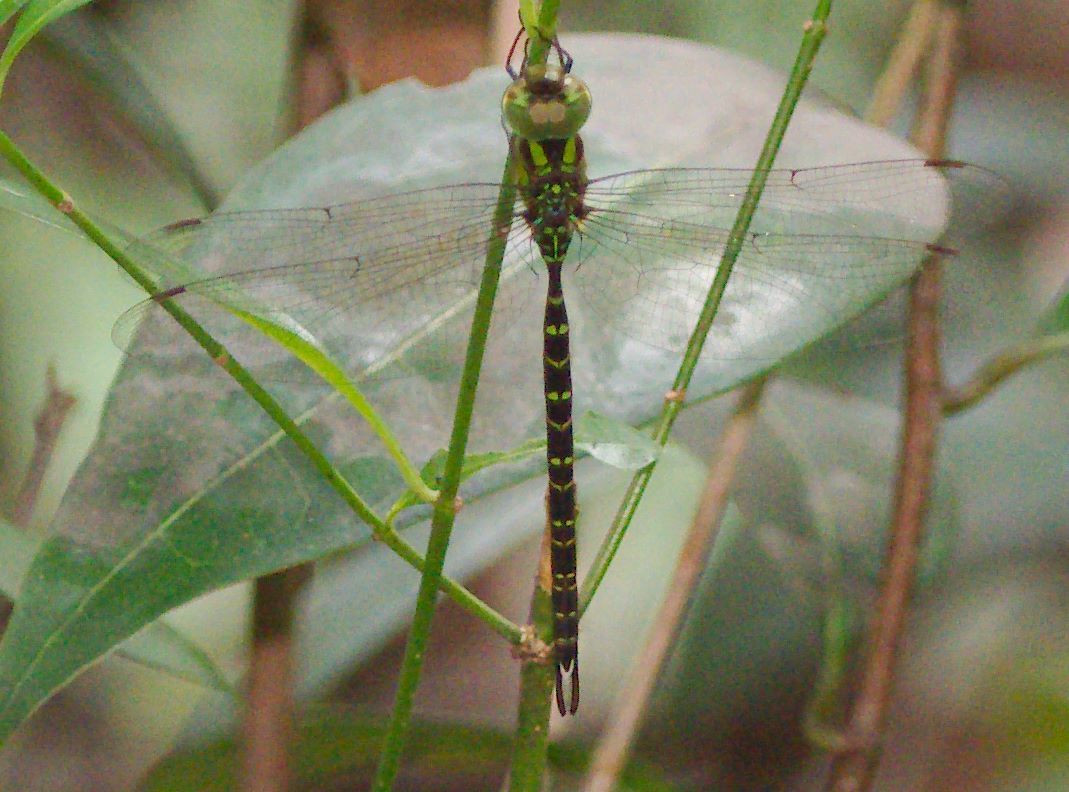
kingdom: Animalia
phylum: Arthropoda
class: Insecta
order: Odonata
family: Aeshnidae
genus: Triacanthagyna
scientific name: Triacanthagyna trifida
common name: Phantom darner
